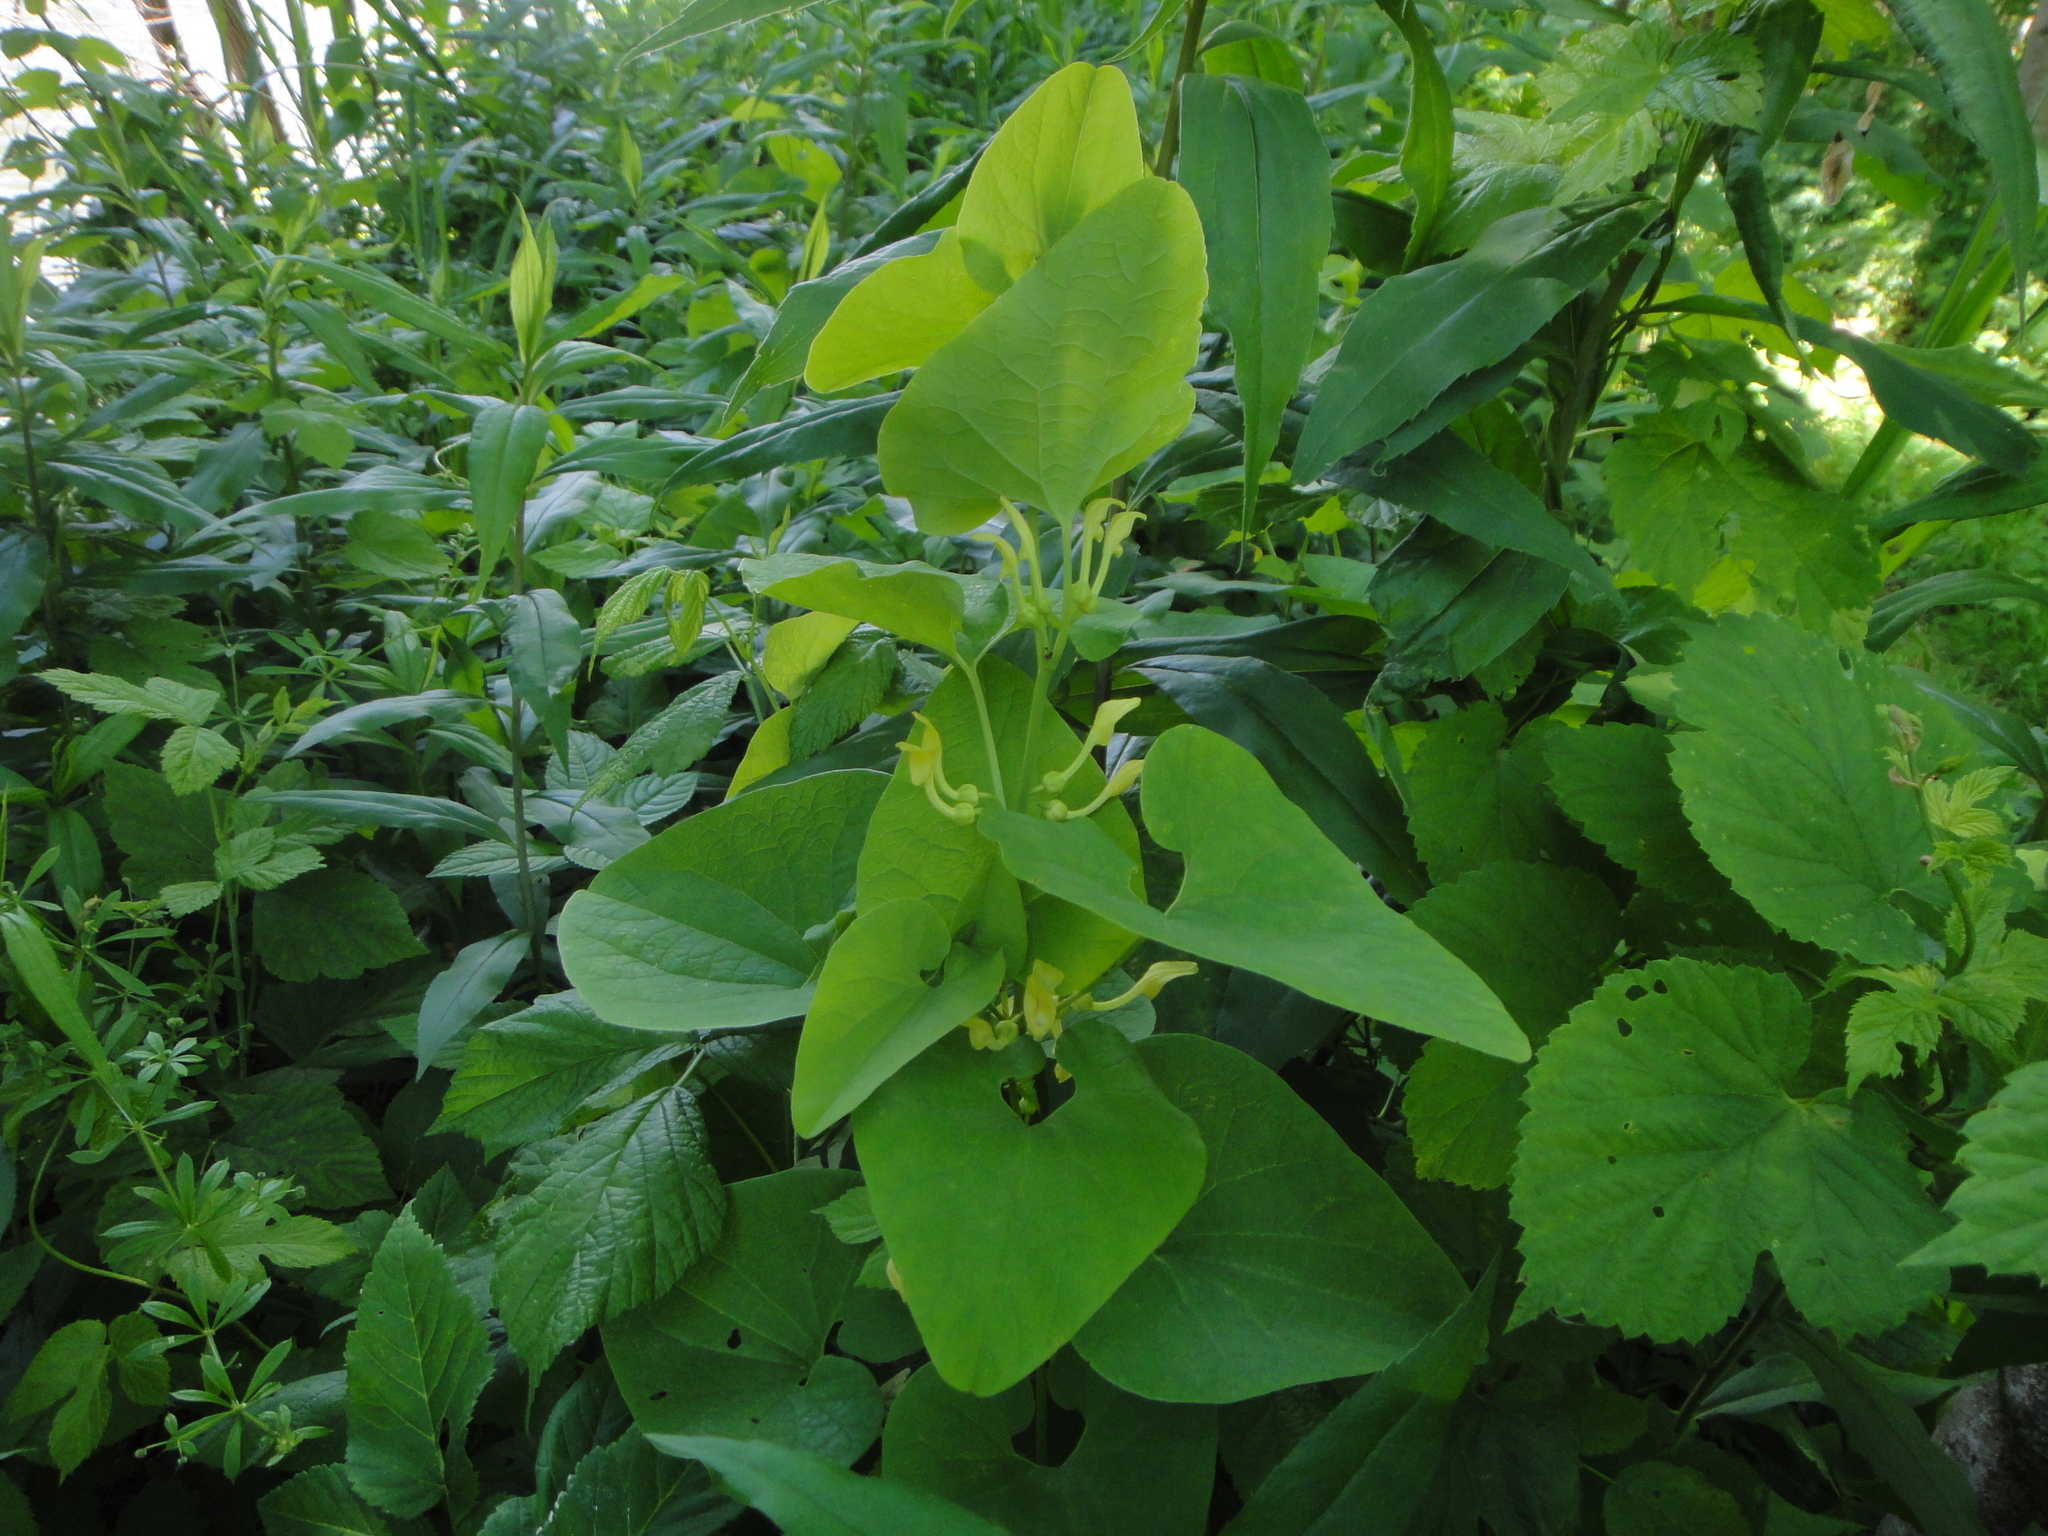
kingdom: Plantae
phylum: Tracheophyta
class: Magnoliopsida
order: Piperales
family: Aristolochiaceae
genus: Aristolochia
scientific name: Aristolochia clematitis
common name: Birthwort
